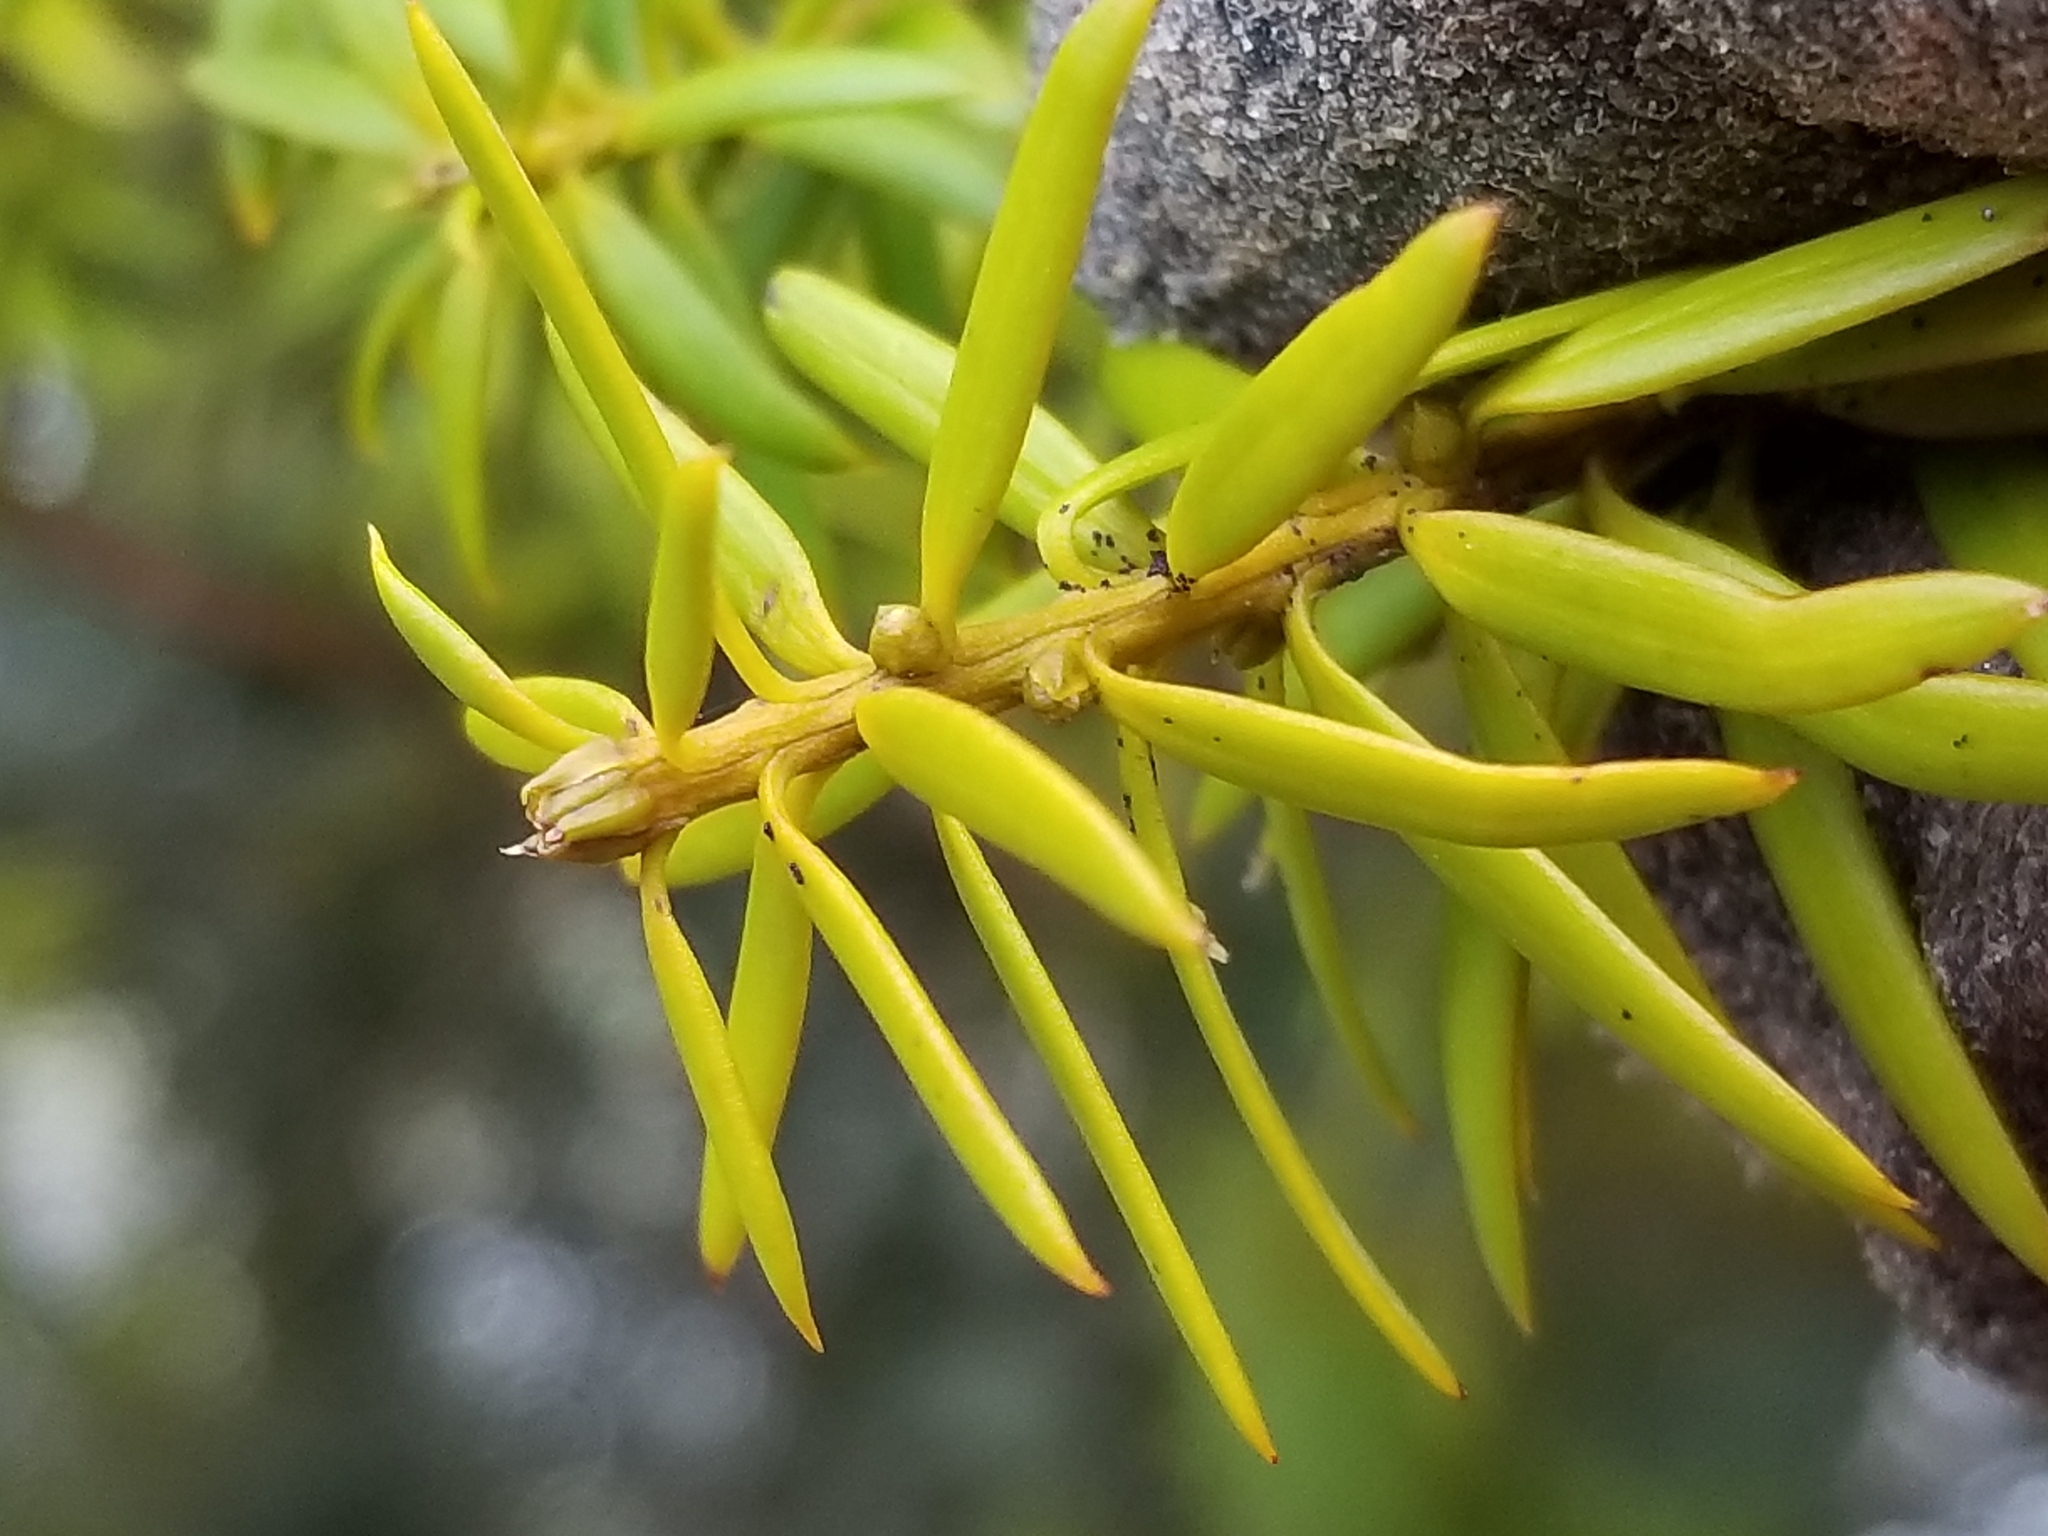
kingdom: Plantae
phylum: Tracheophyta
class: Pinopsida
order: Pinales
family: Podocarpaceae
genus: Podocarpus
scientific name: Podocarpus totara
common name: Totara
